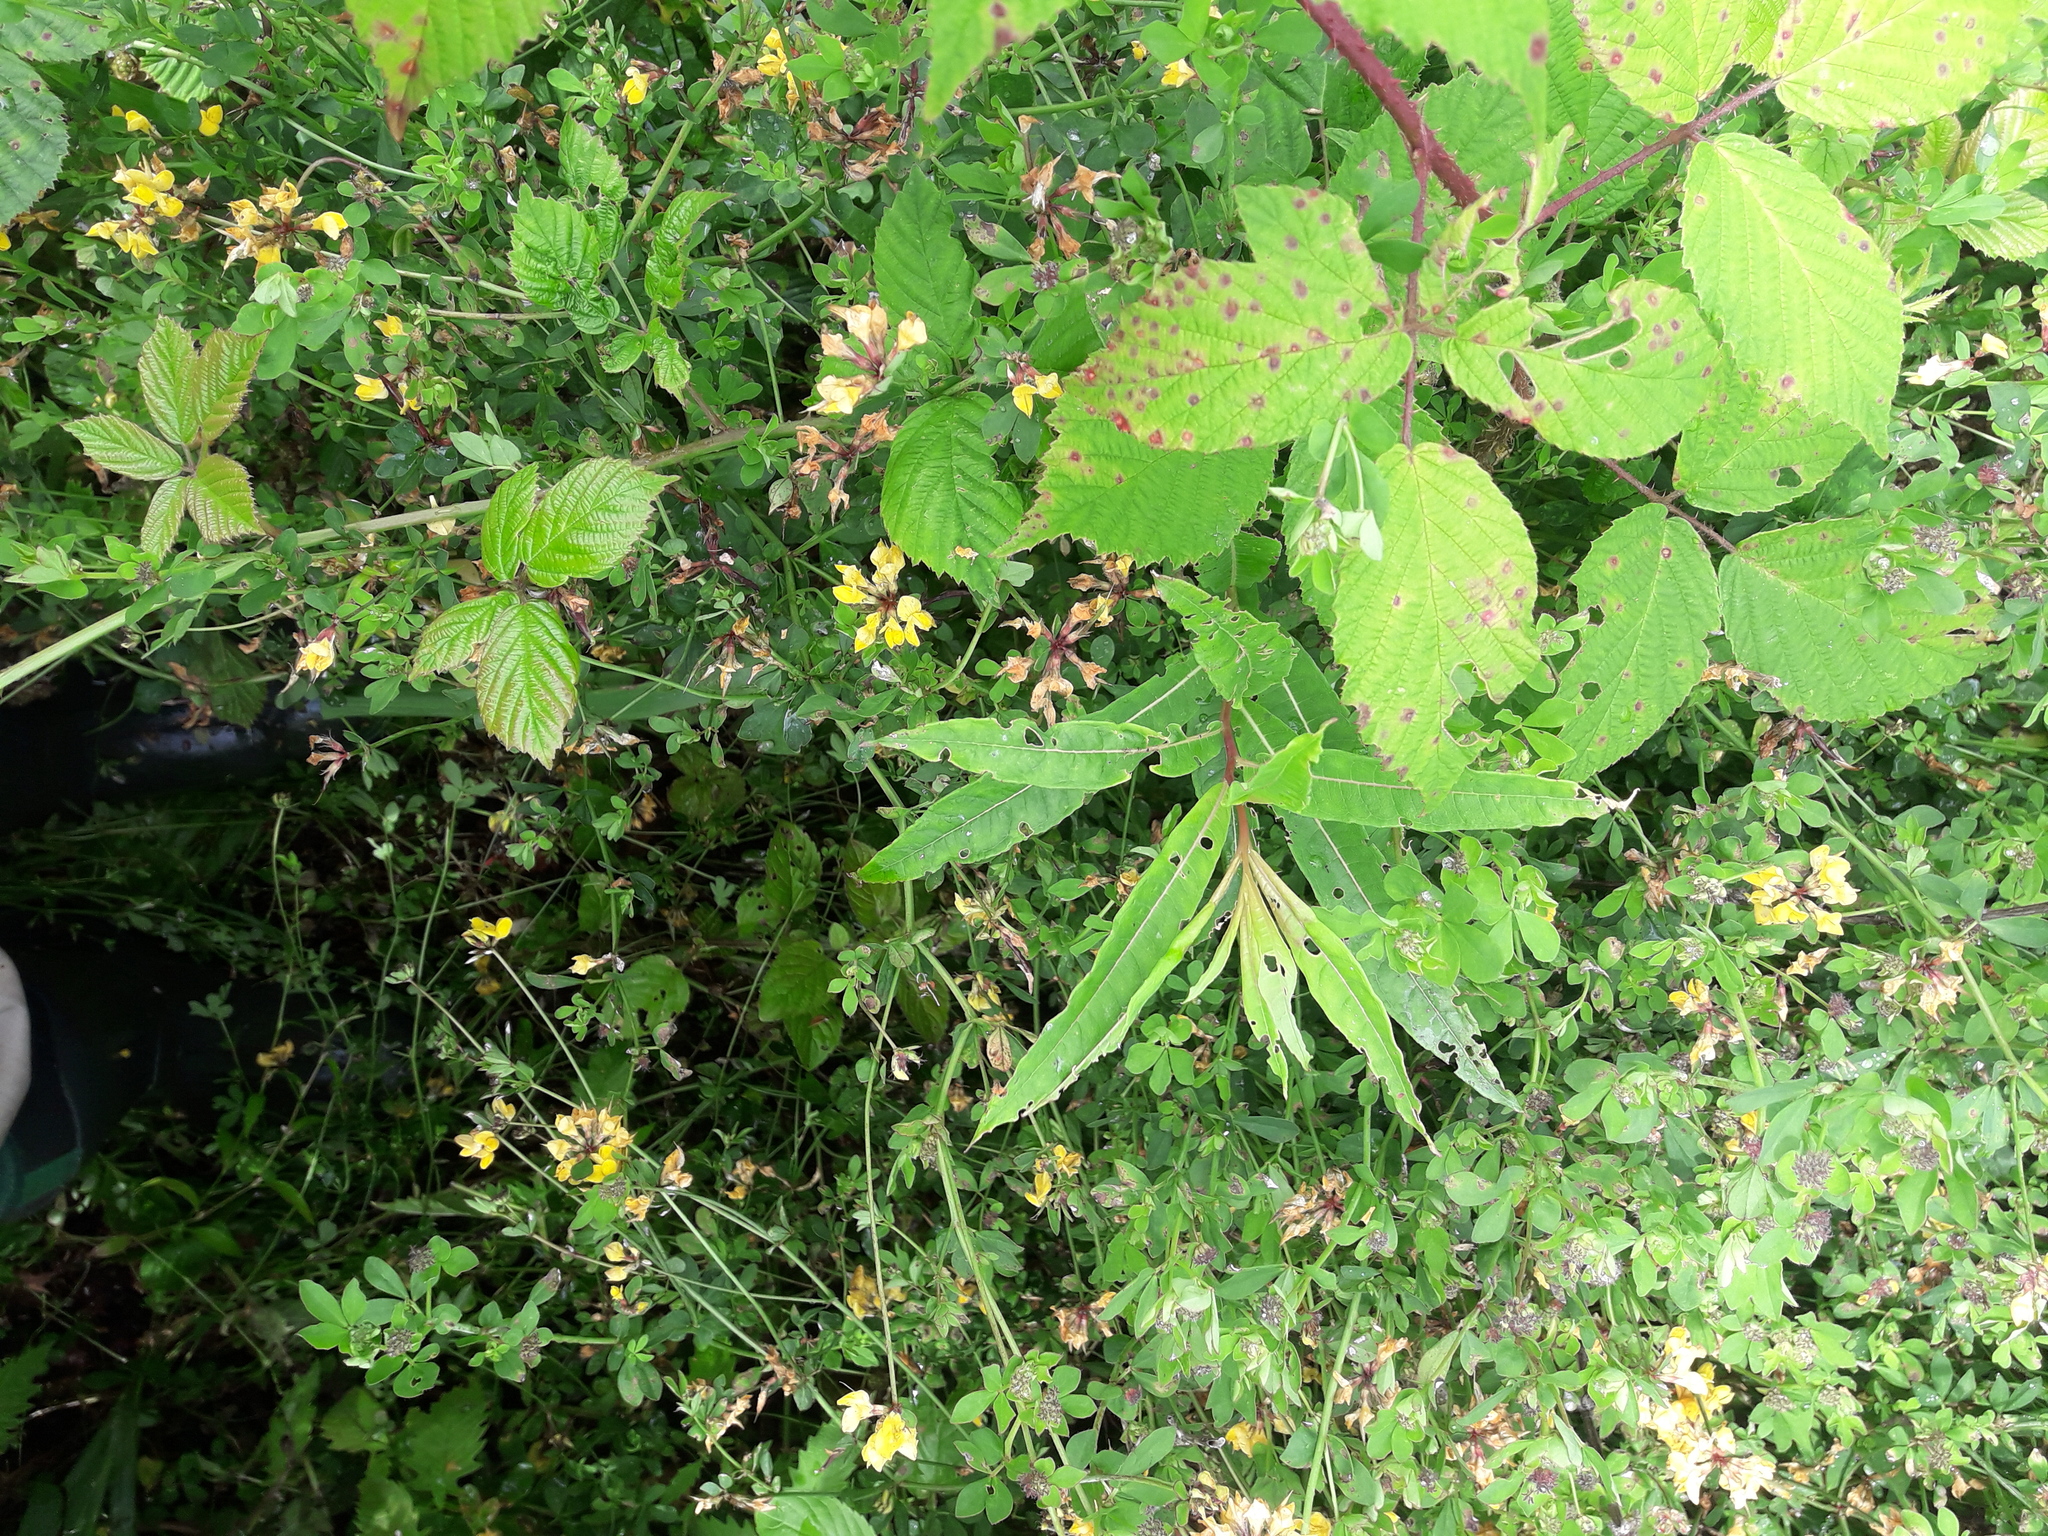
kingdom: Plantae
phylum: Tracheophyta
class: Magnoliopsida
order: Myrtales
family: Onagraceae
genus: Chamaenerion
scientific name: Chamaenerion angustifolium
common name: Fireweed
